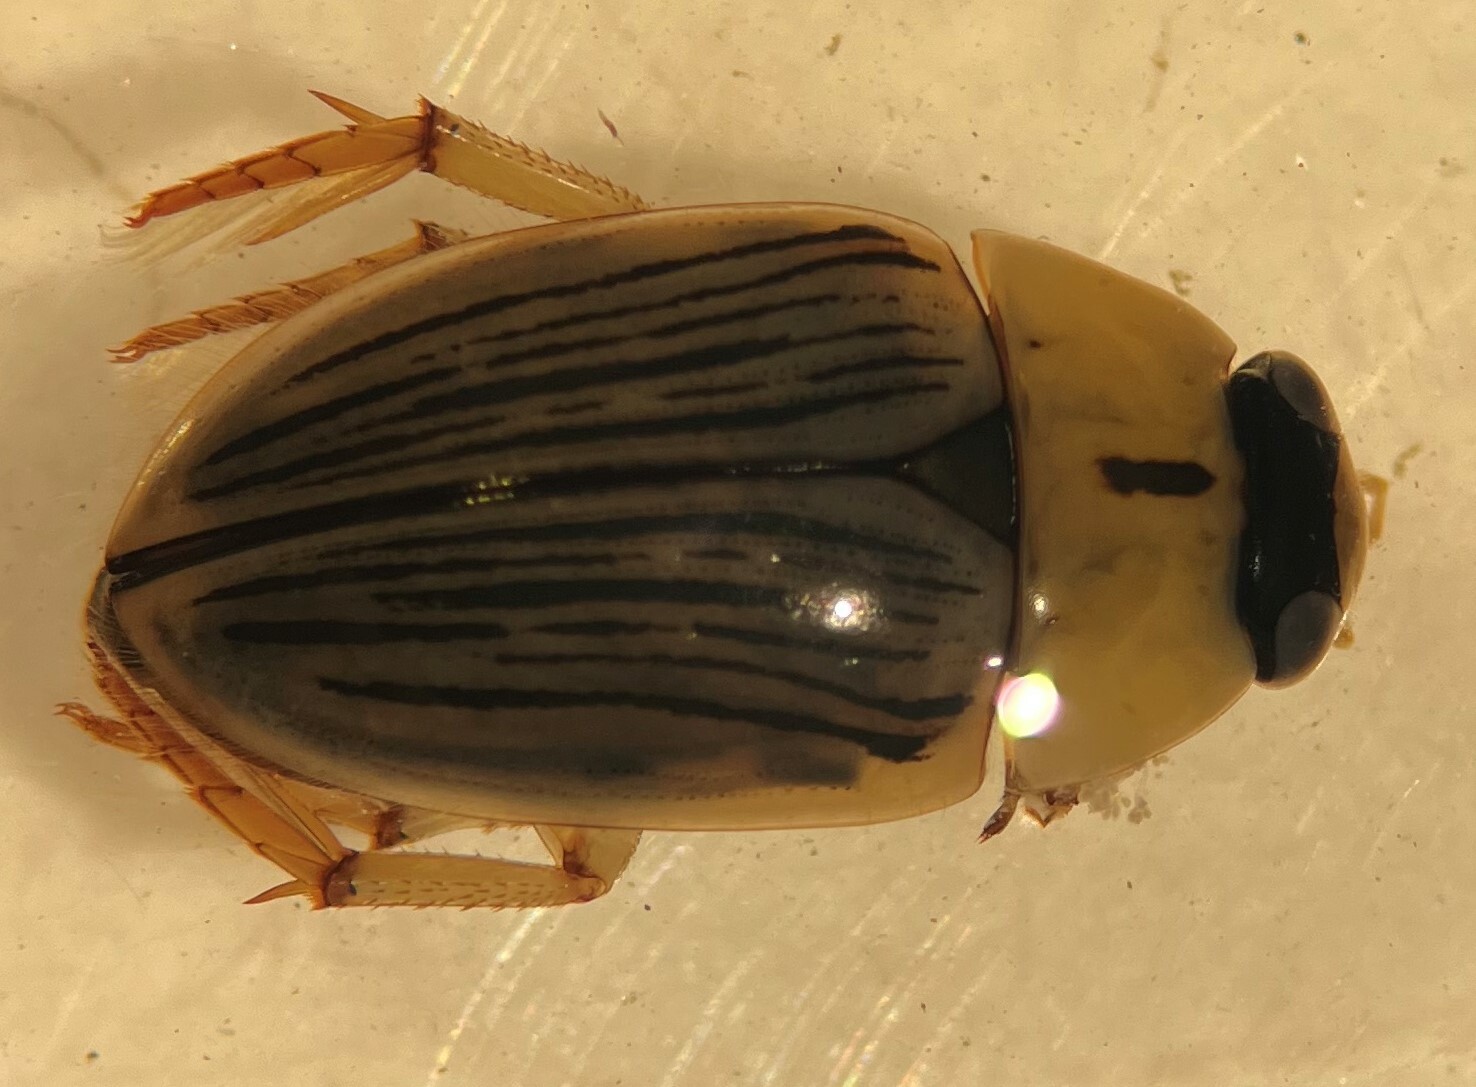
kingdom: Animalia
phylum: Arthropoda
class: Insecta
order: Coleoptera
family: Hydrophilidae
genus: Tropisternus
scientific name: Tropisternus collaris
